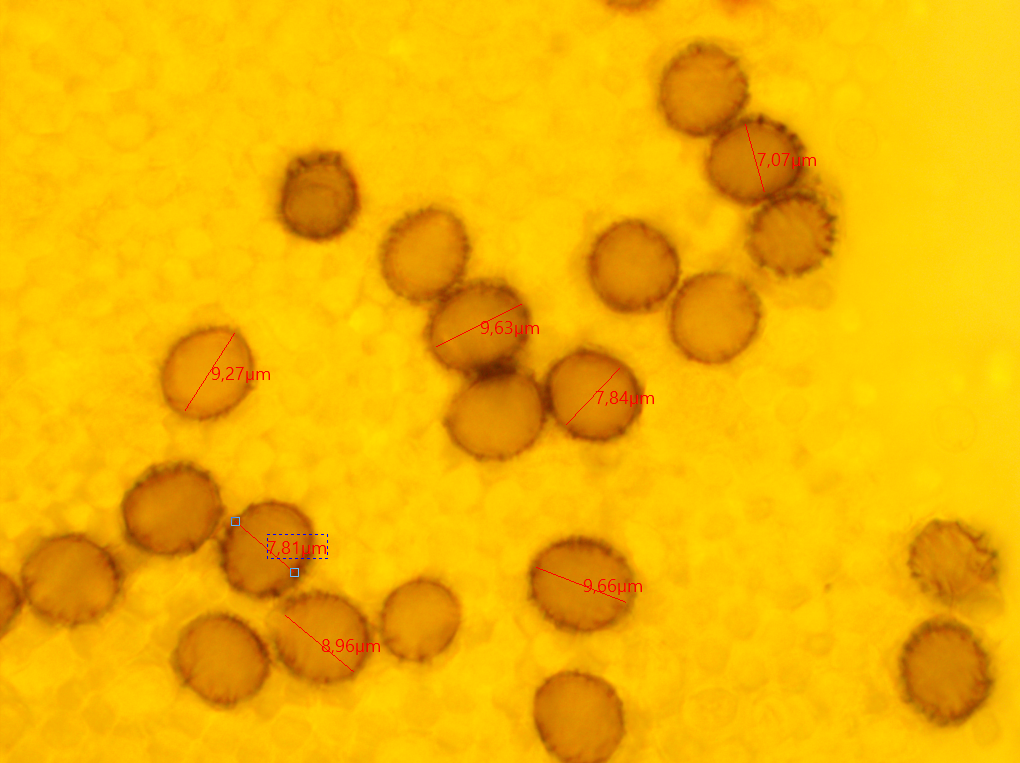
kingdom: Fungi
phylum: Basidiomycota
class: Agaricomycetes
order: Russulales
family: Russulaceae
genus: Lactarius
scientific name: Lactarius acerrimus
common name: Two-spored milkcap
